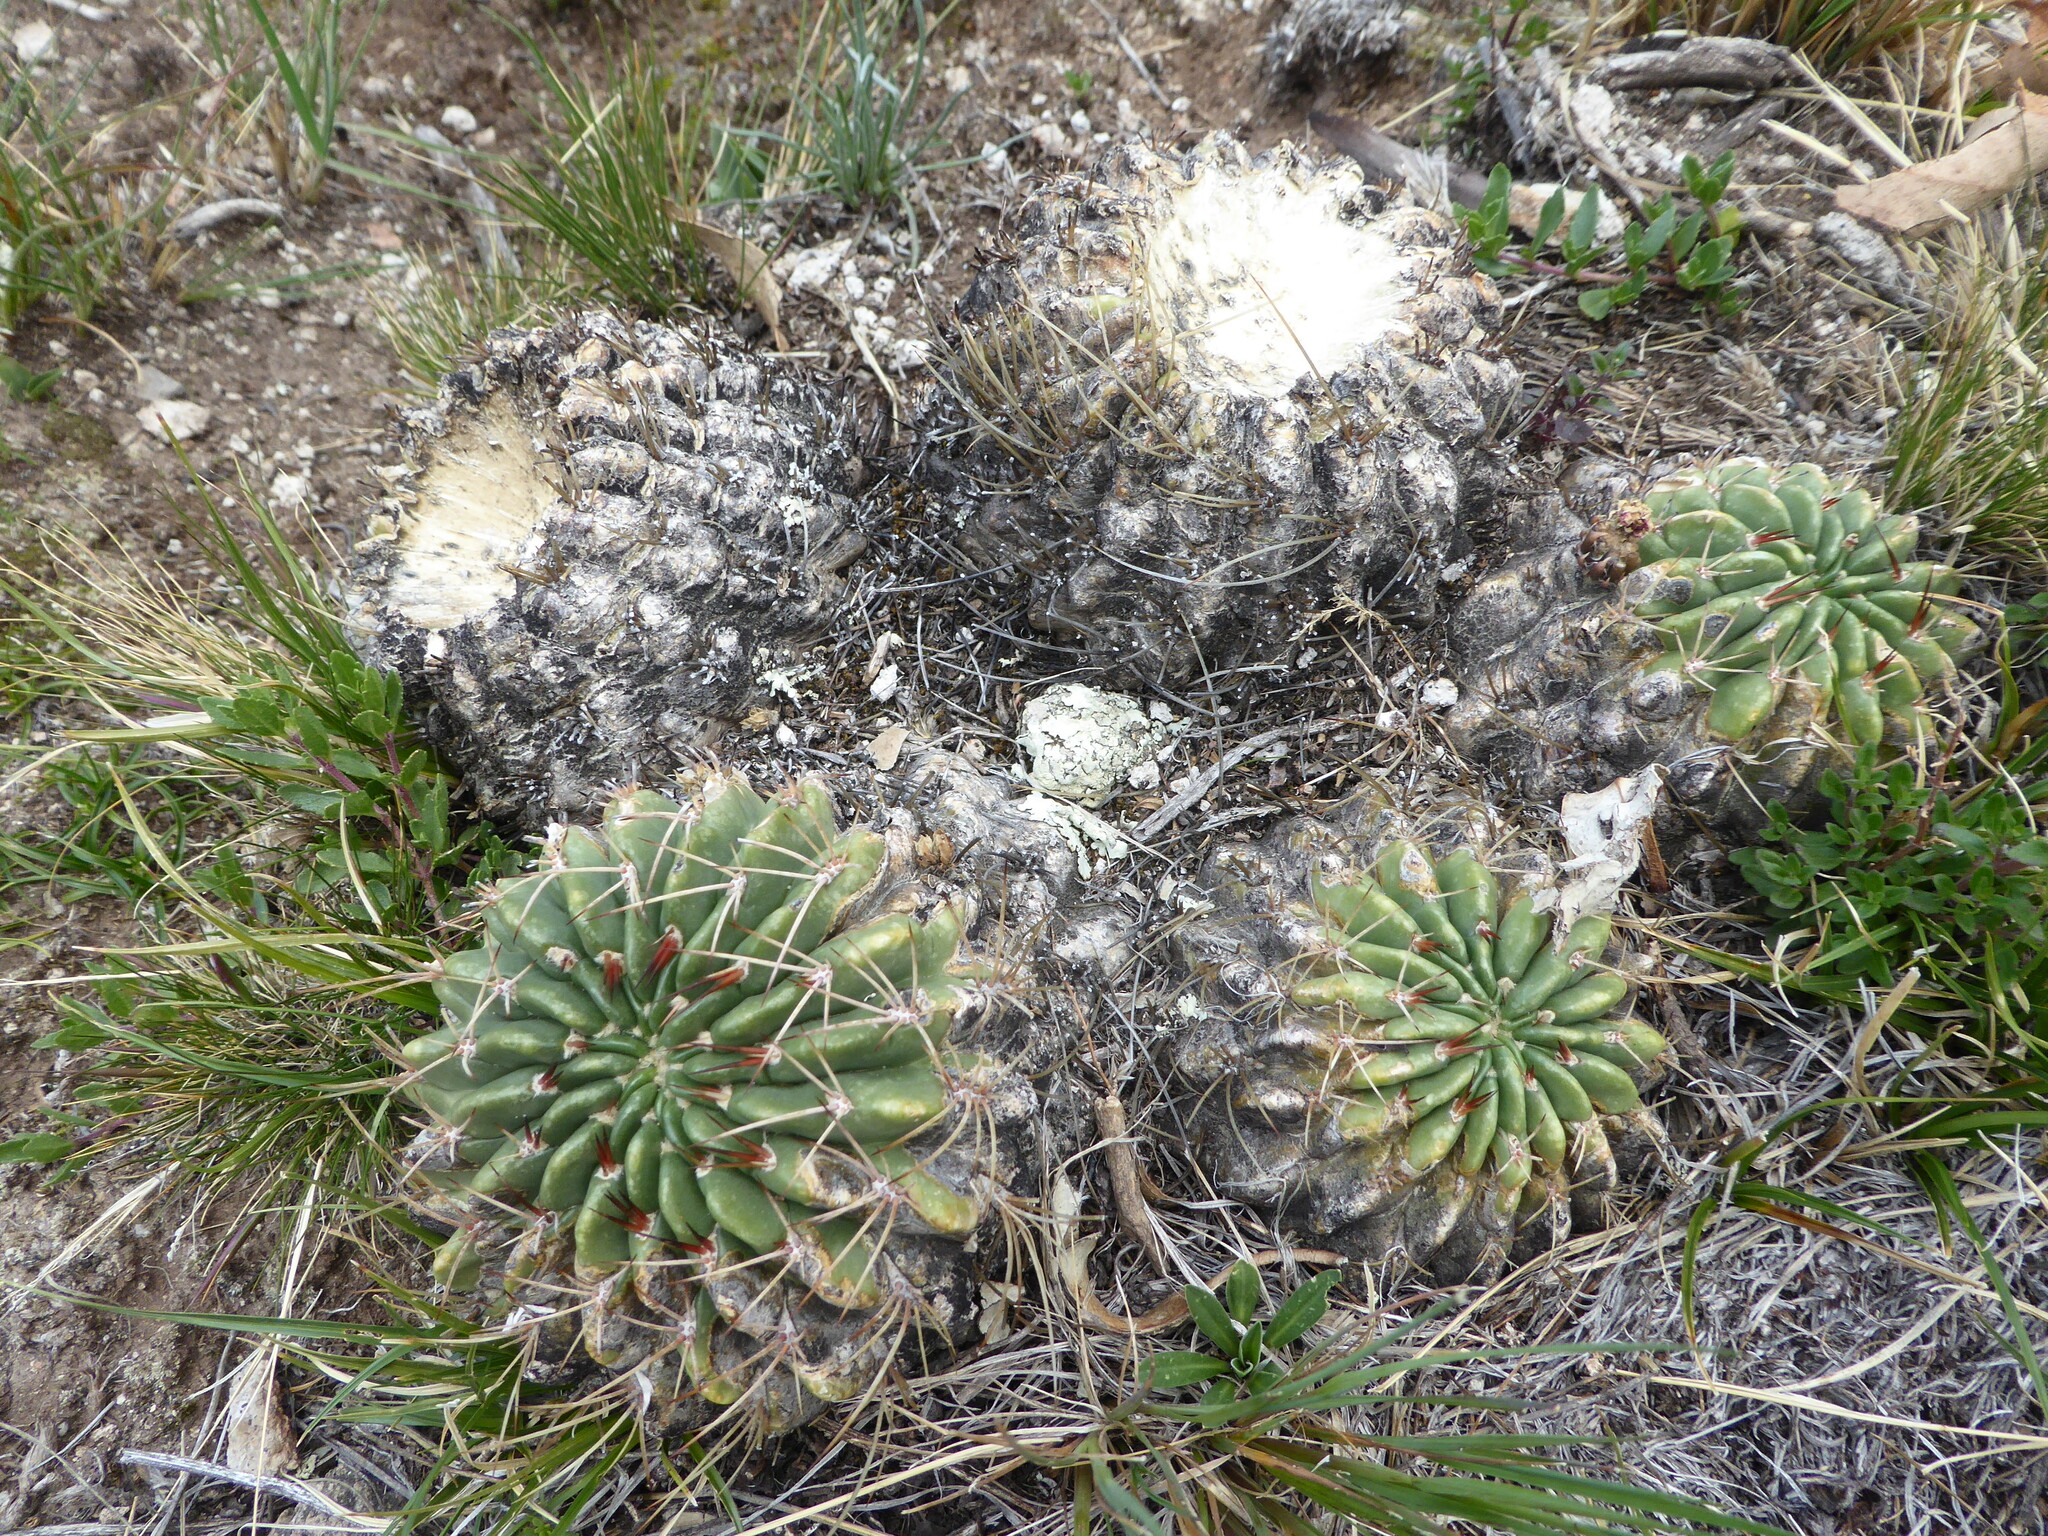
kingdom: Plantae
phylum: Tracheophyta
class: Magnoliopsida
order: Caryophyllales
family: Cactaceae
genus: Lobivia
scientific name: Lobivia pentlandii
